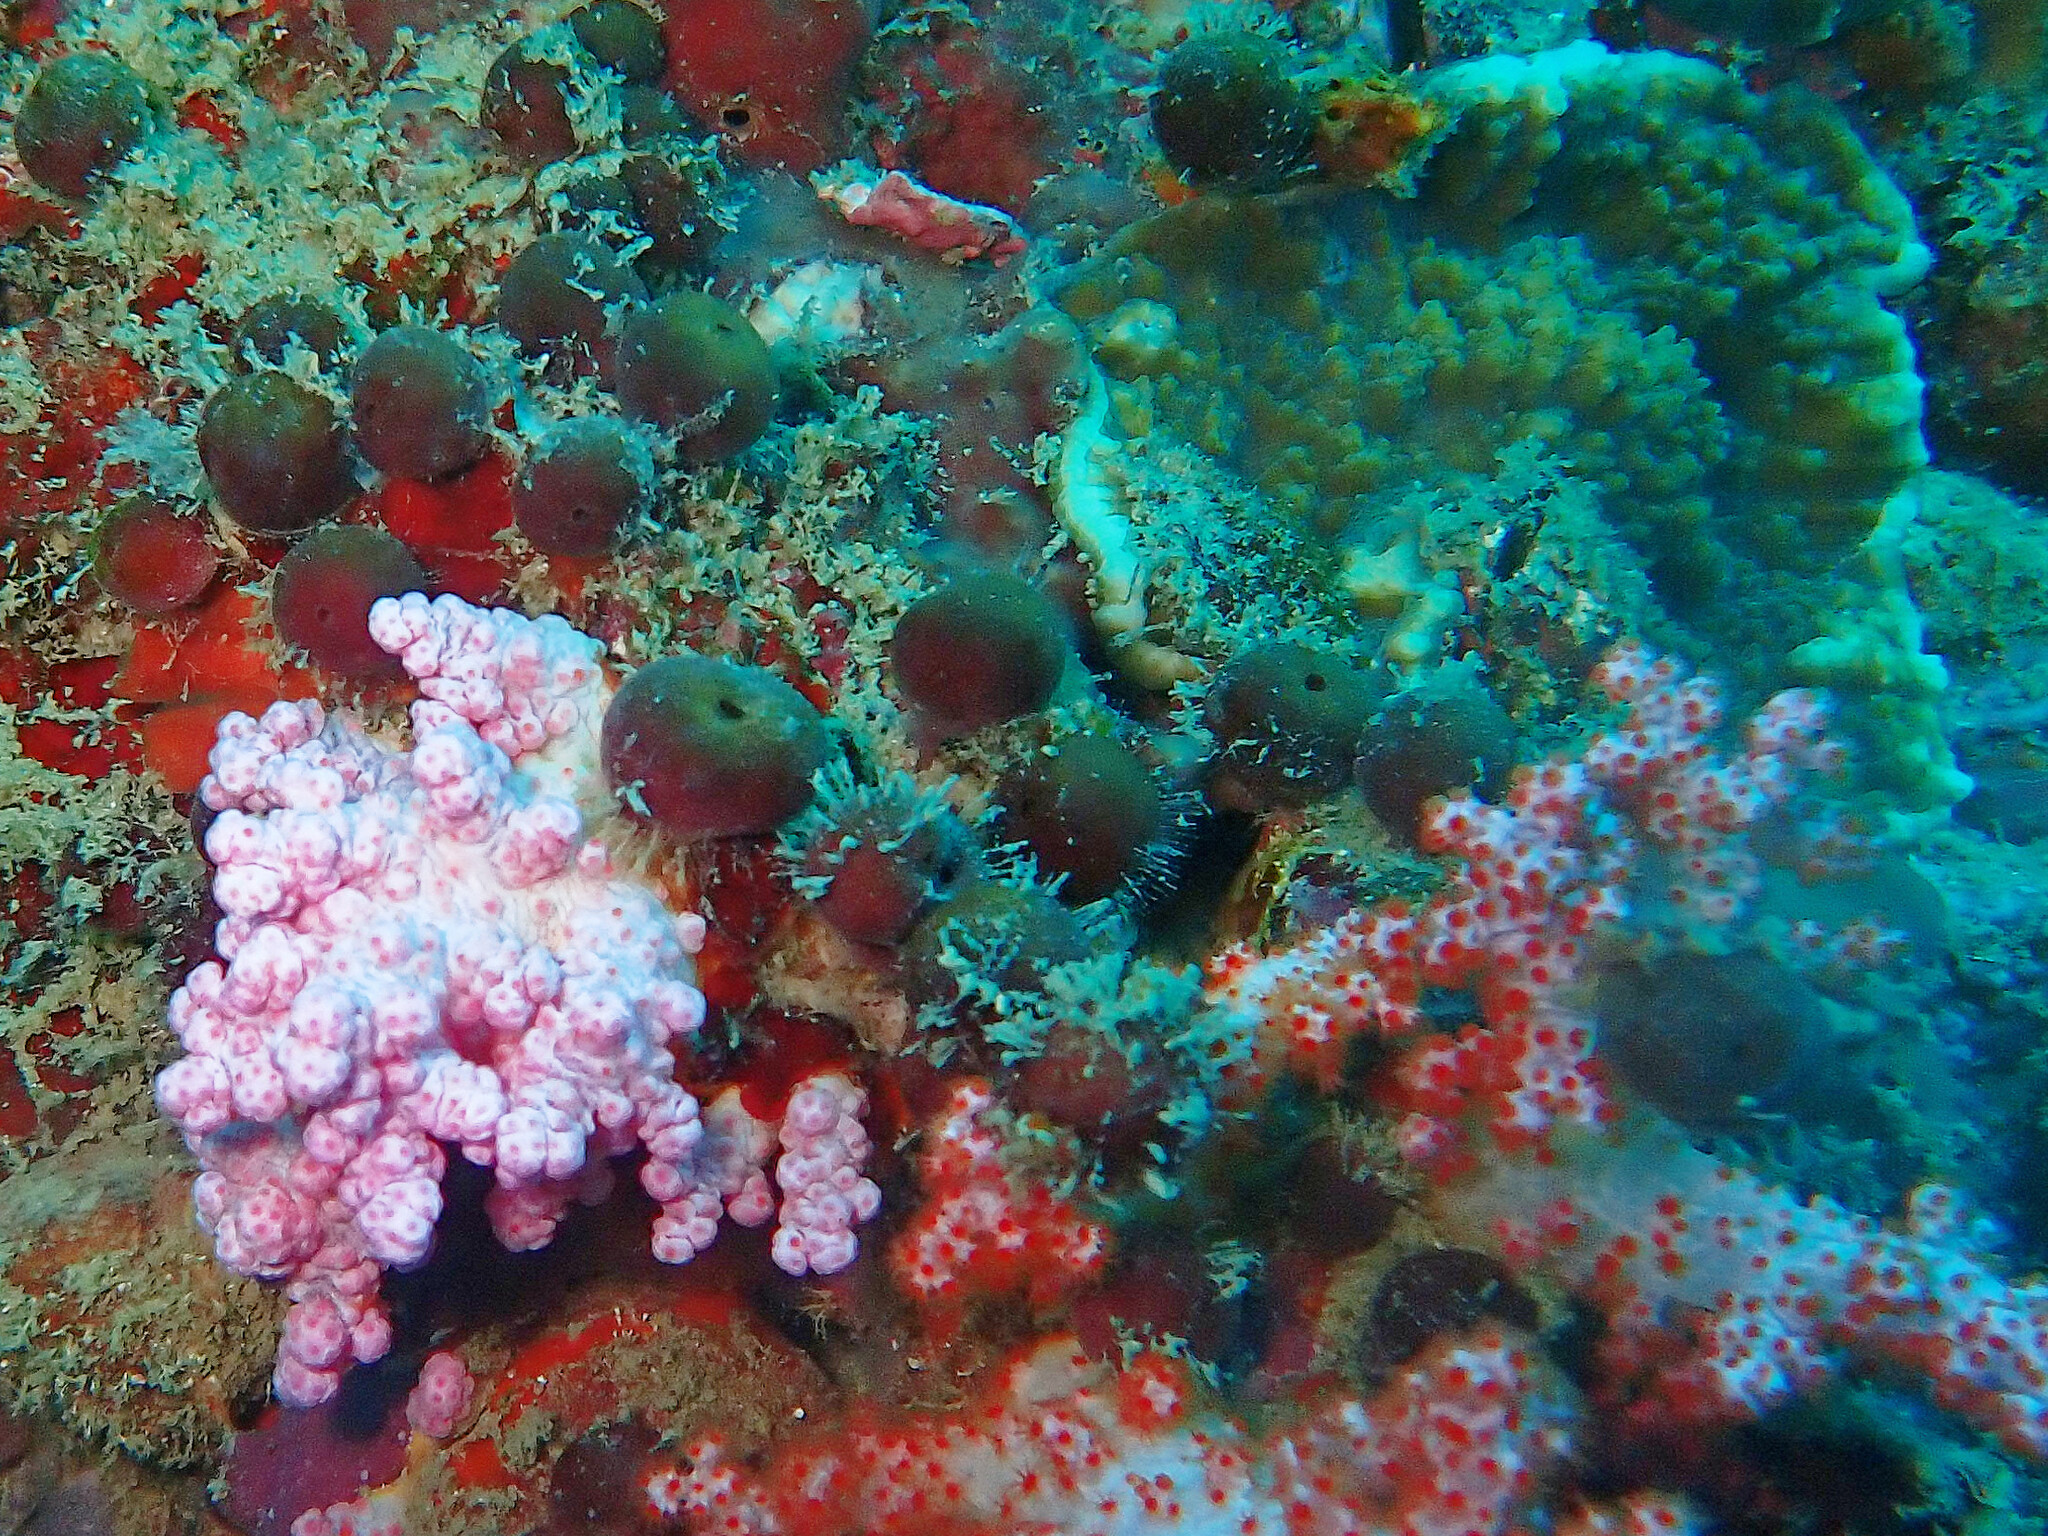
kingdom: Animalia
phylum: Porifera
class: Demospongiae
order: Tetractinellida
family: Ancorinidae
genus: Stelletta
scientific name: Stelletta clavosa
